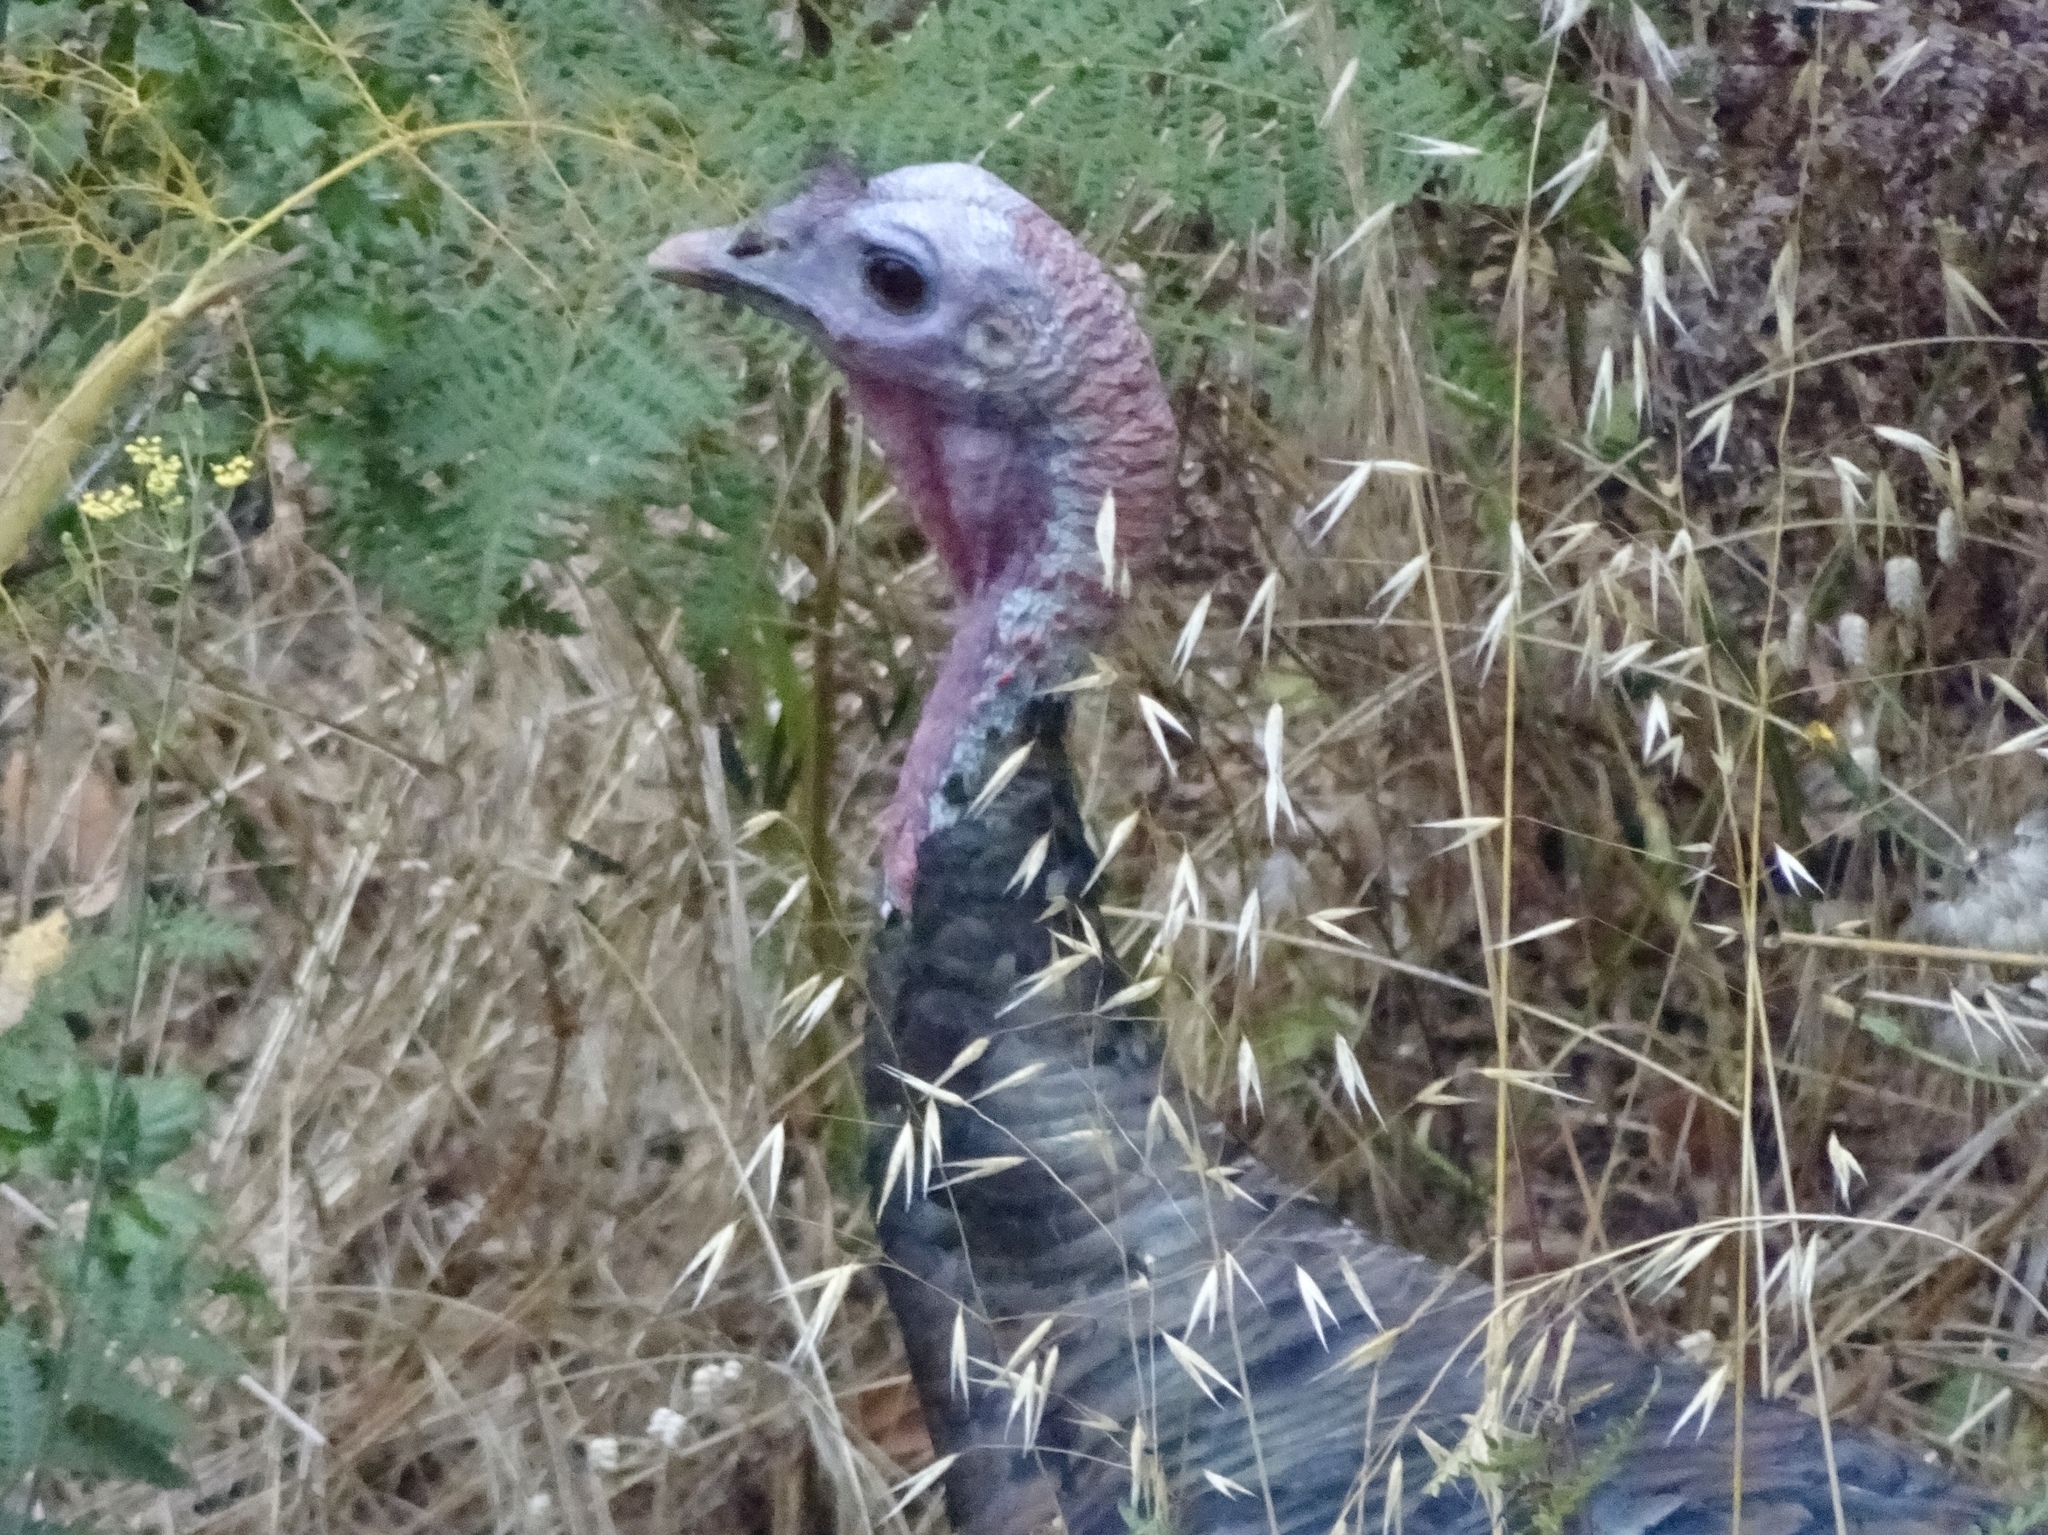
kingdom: Animalia
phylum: Chordata
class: Aves
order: Galliformes
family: Phasianidae
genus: Meleagris
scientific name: Meleagris gallopavo
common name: Wild turkey
